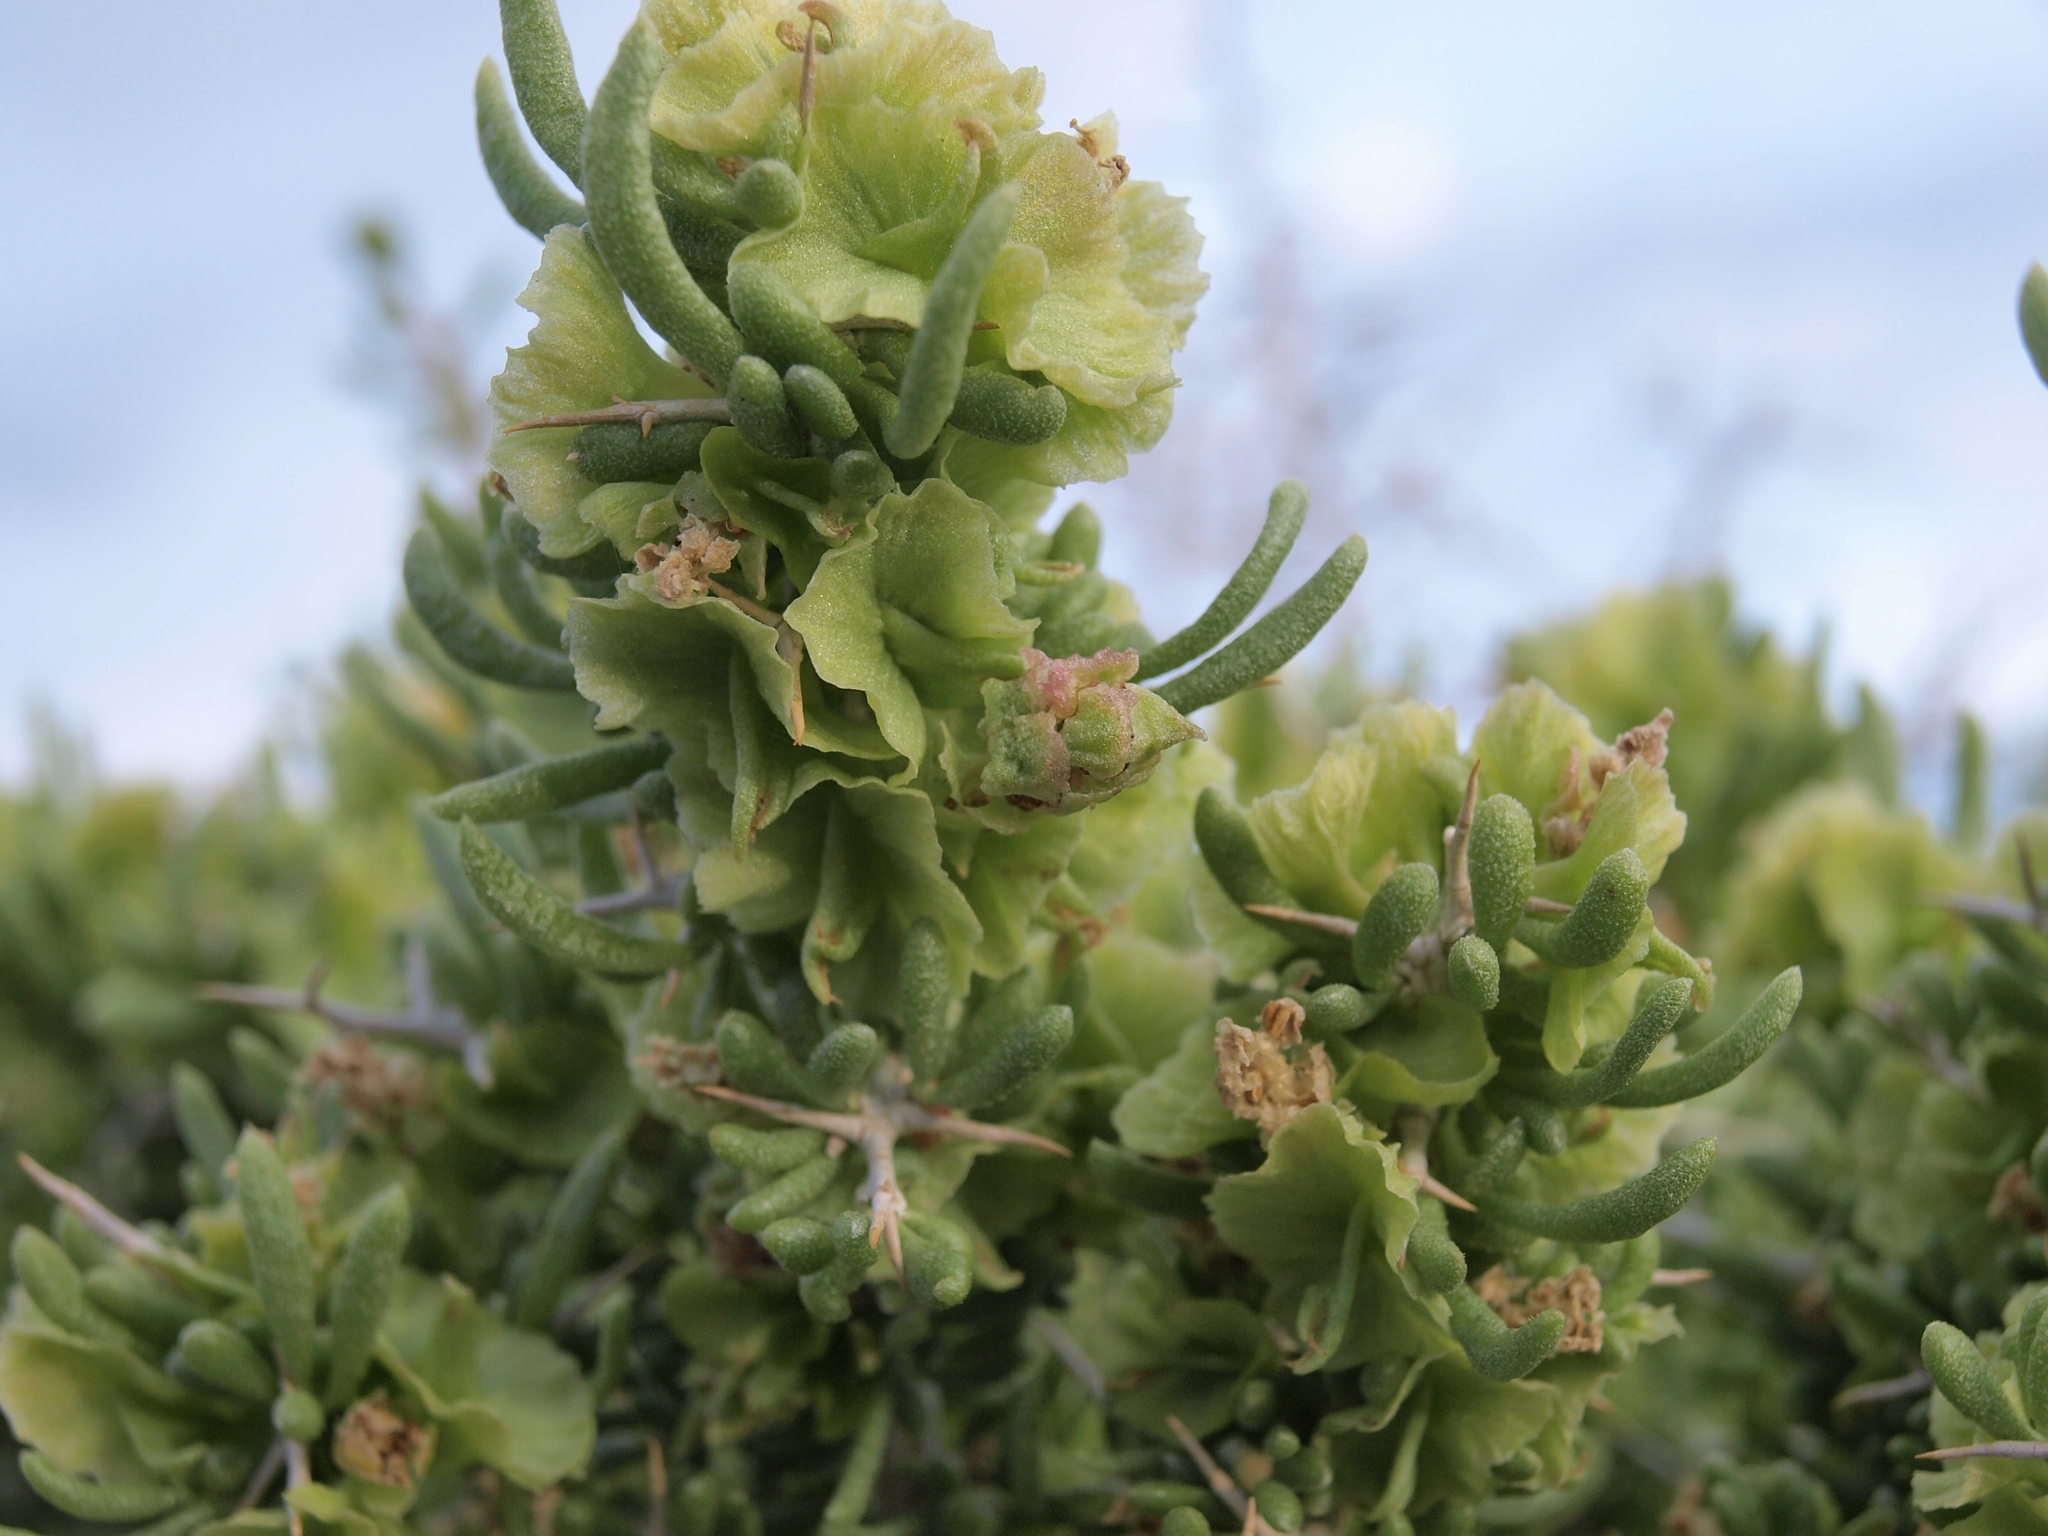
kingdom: Plantae
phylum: Tracheophyta
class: Magnoliopsida
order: Caryophyllales
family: Sarcobataceae
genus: Sarcobatus
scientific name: Sarcobatus baileyi
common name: Bailey greasewood
